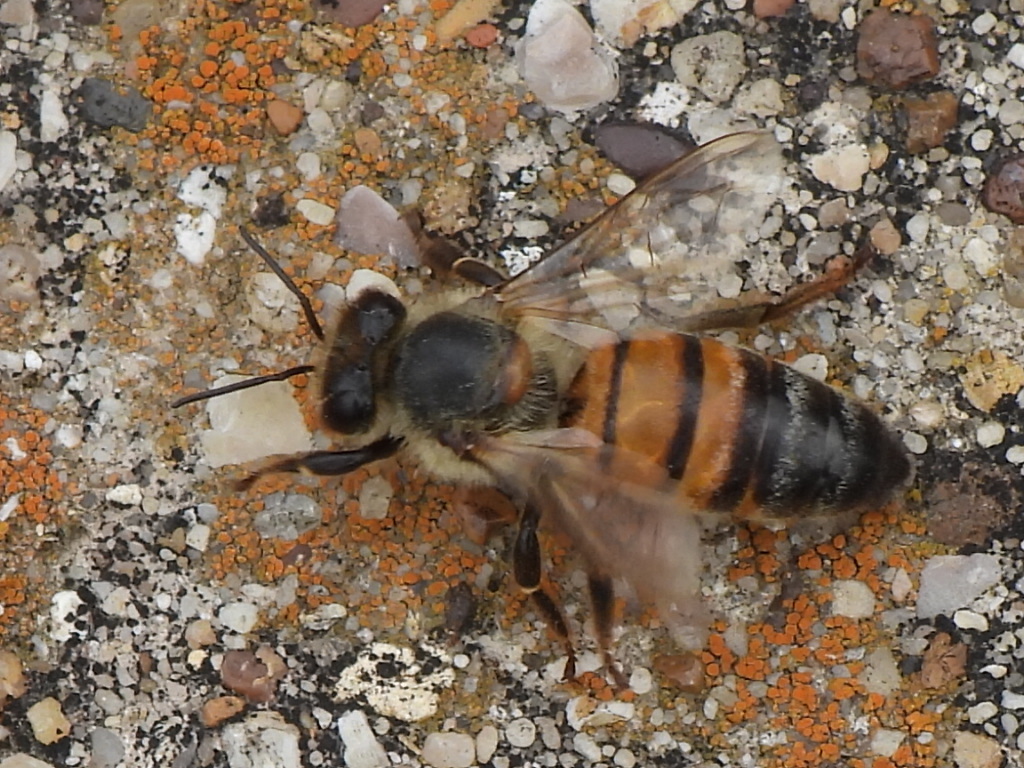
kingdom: Animalia
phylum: Arthropoda
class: Insecta
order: Hymenoptera
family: Apidae
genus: Apis
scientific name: Apis mellifera
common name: Honey bee
